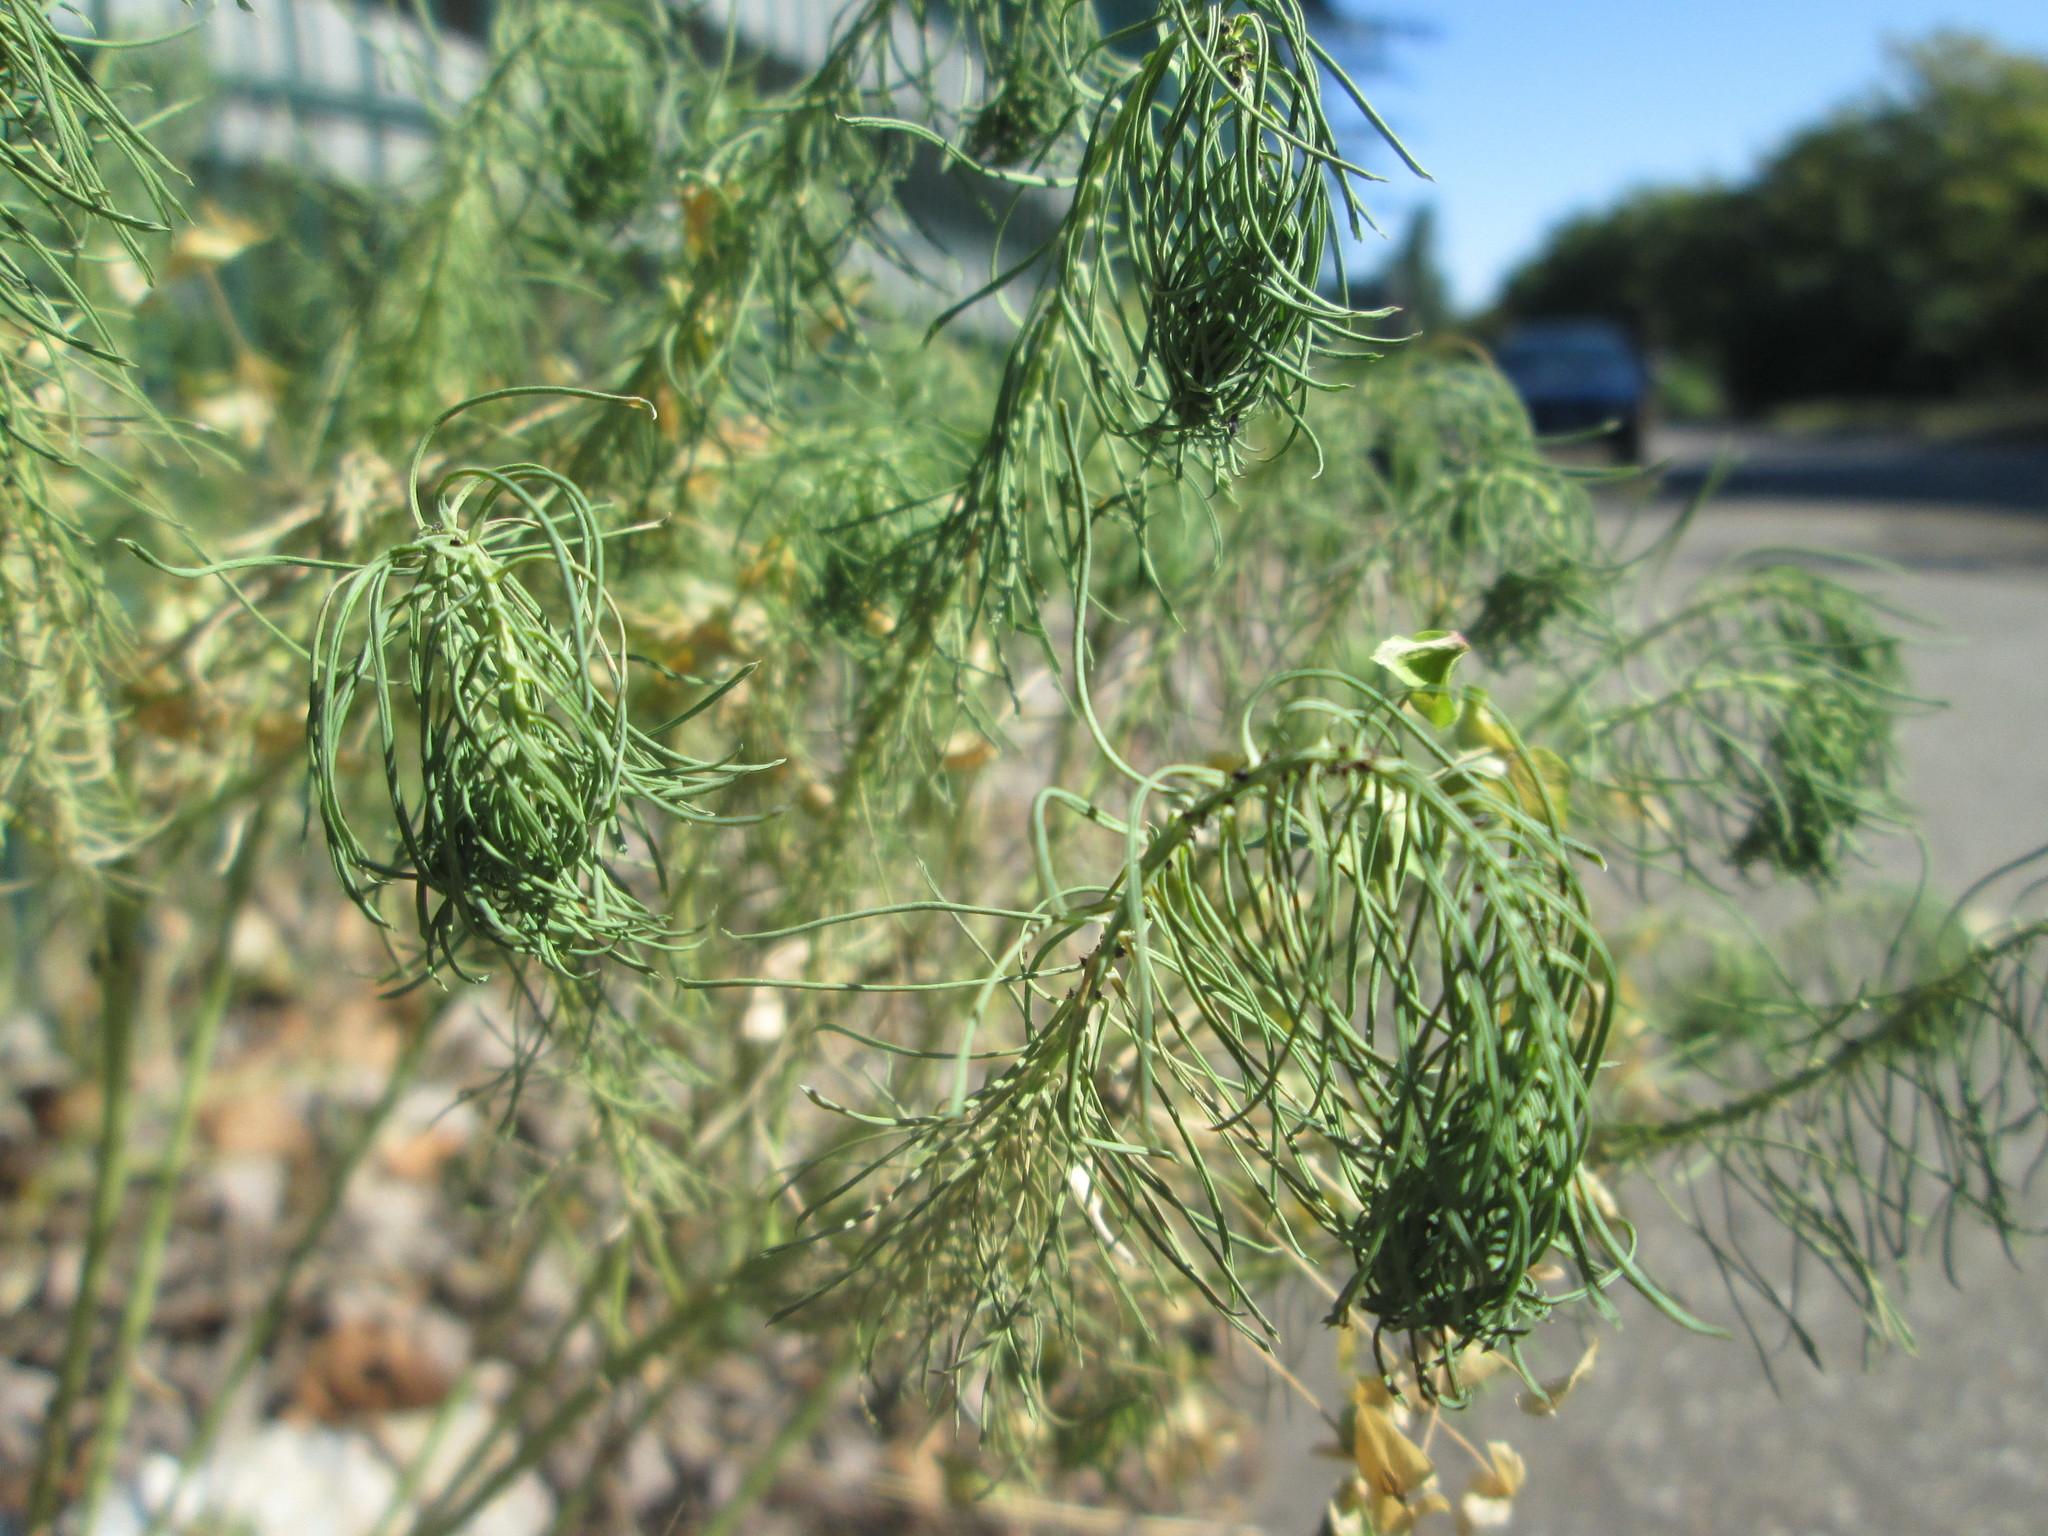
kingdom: Plantae
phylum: Tracheophyta
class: Magnoliopsida
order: Malpighiales
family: Euphorbiaceae
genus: Euphorbia
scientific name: Euphorbia cyparissias
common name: Cypress spurge
